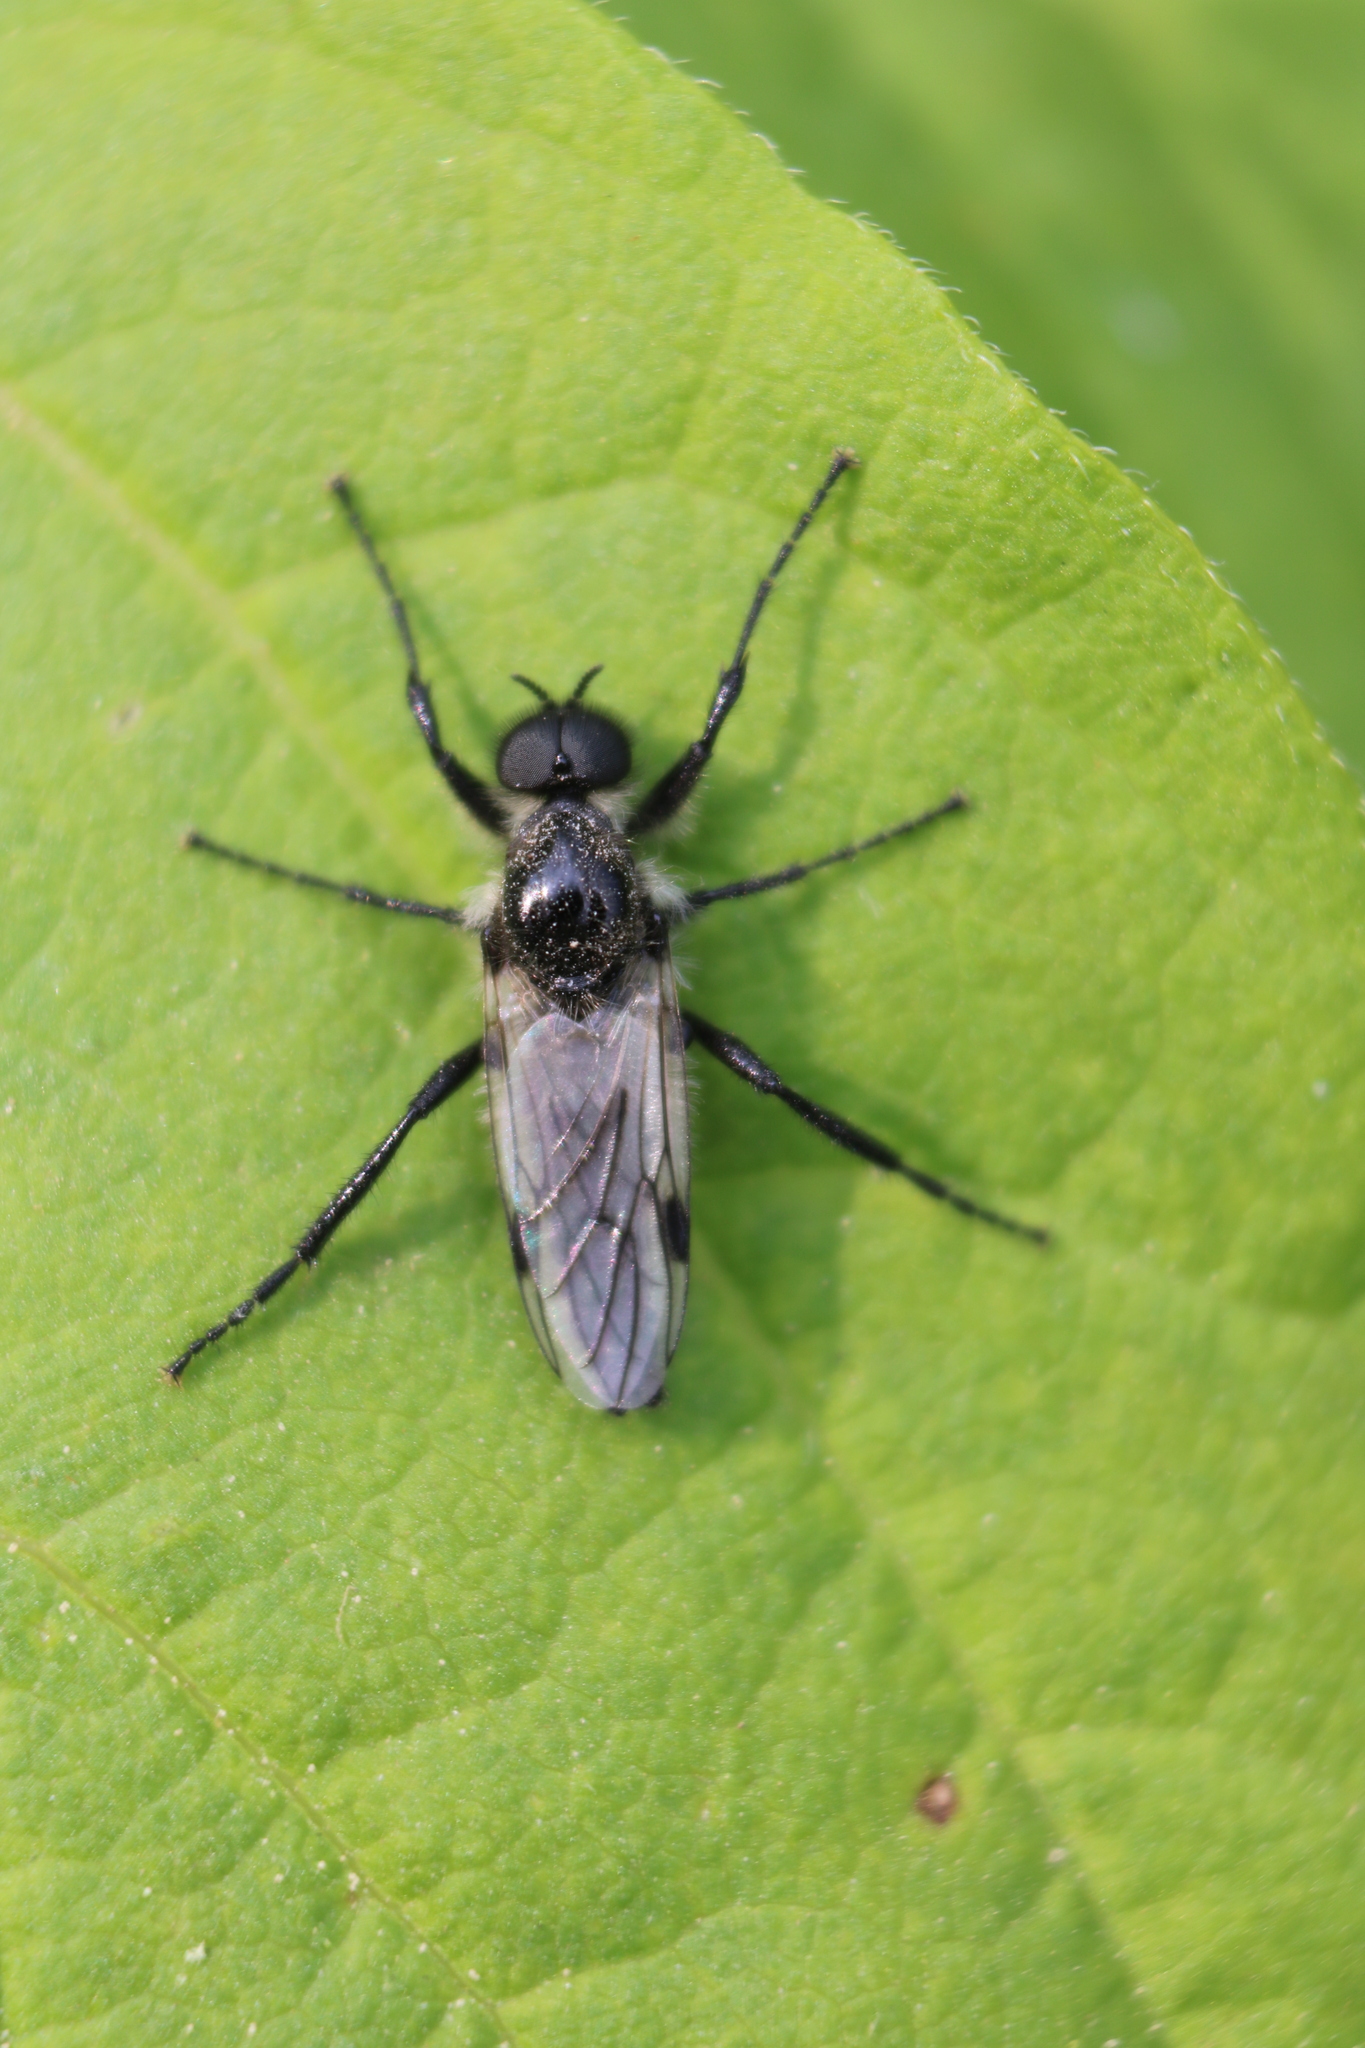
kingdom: Animalia
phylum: Arthropoda
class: Insecta
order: Diptera
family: Bibionidae
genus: Bibio
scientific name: Bibio albipennis
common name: White-winged march fly
